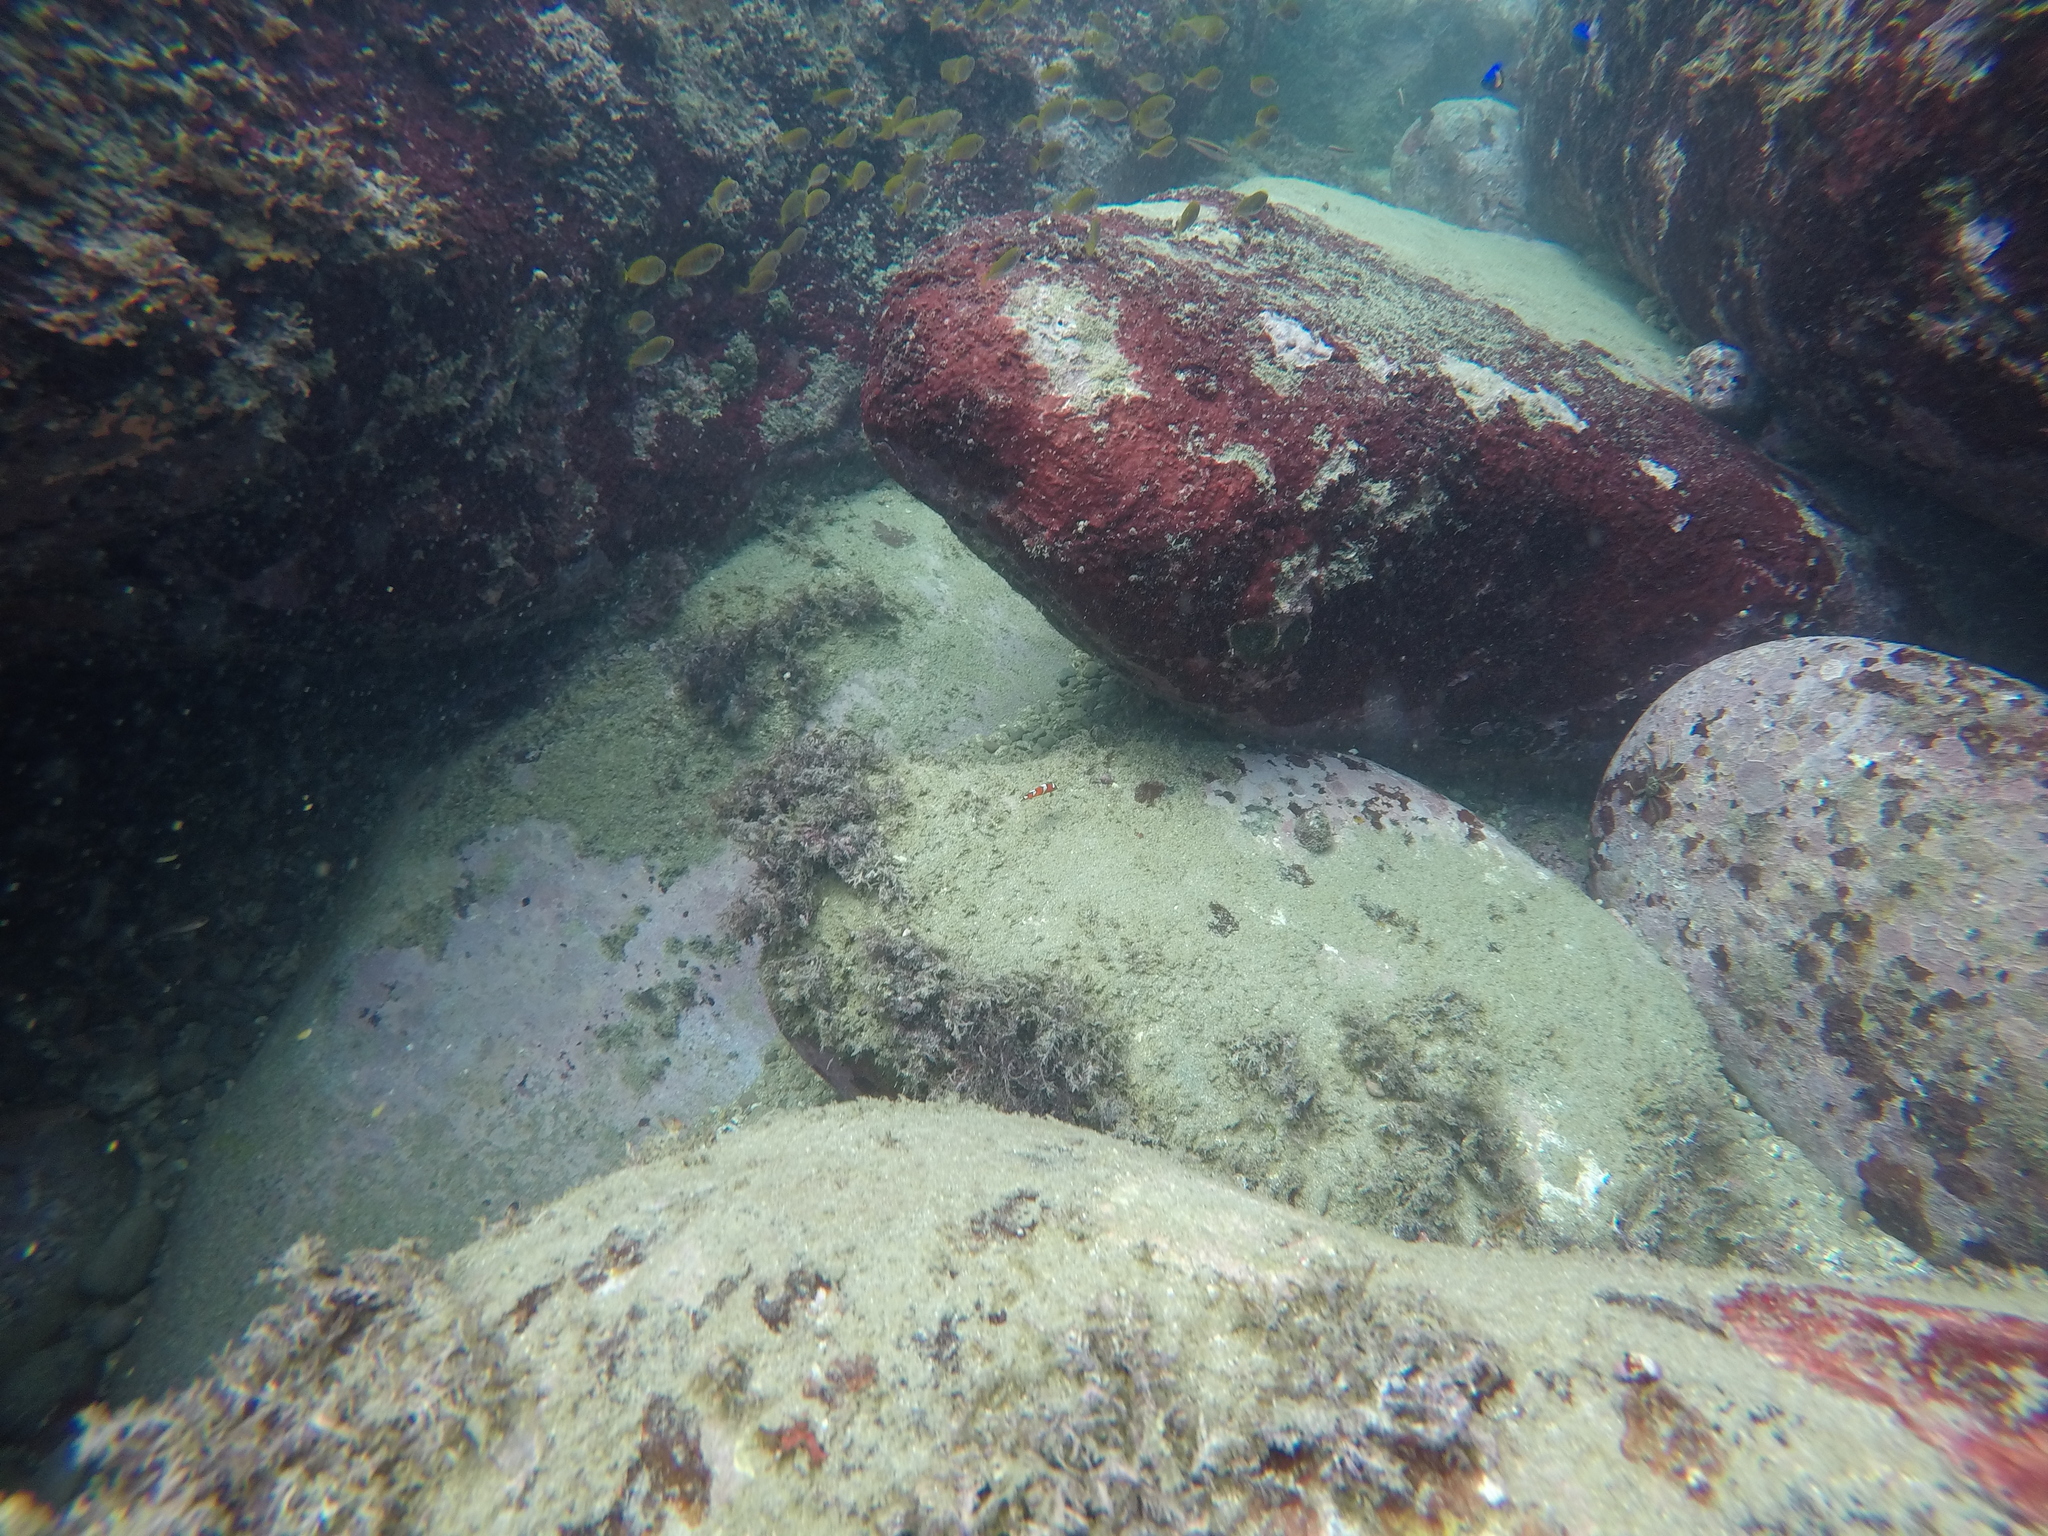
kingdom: Animalia
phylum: Chordata
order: Perciformes
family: Labridae
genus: Coris
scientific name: Coris gaimard
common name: Yellowtail coris
